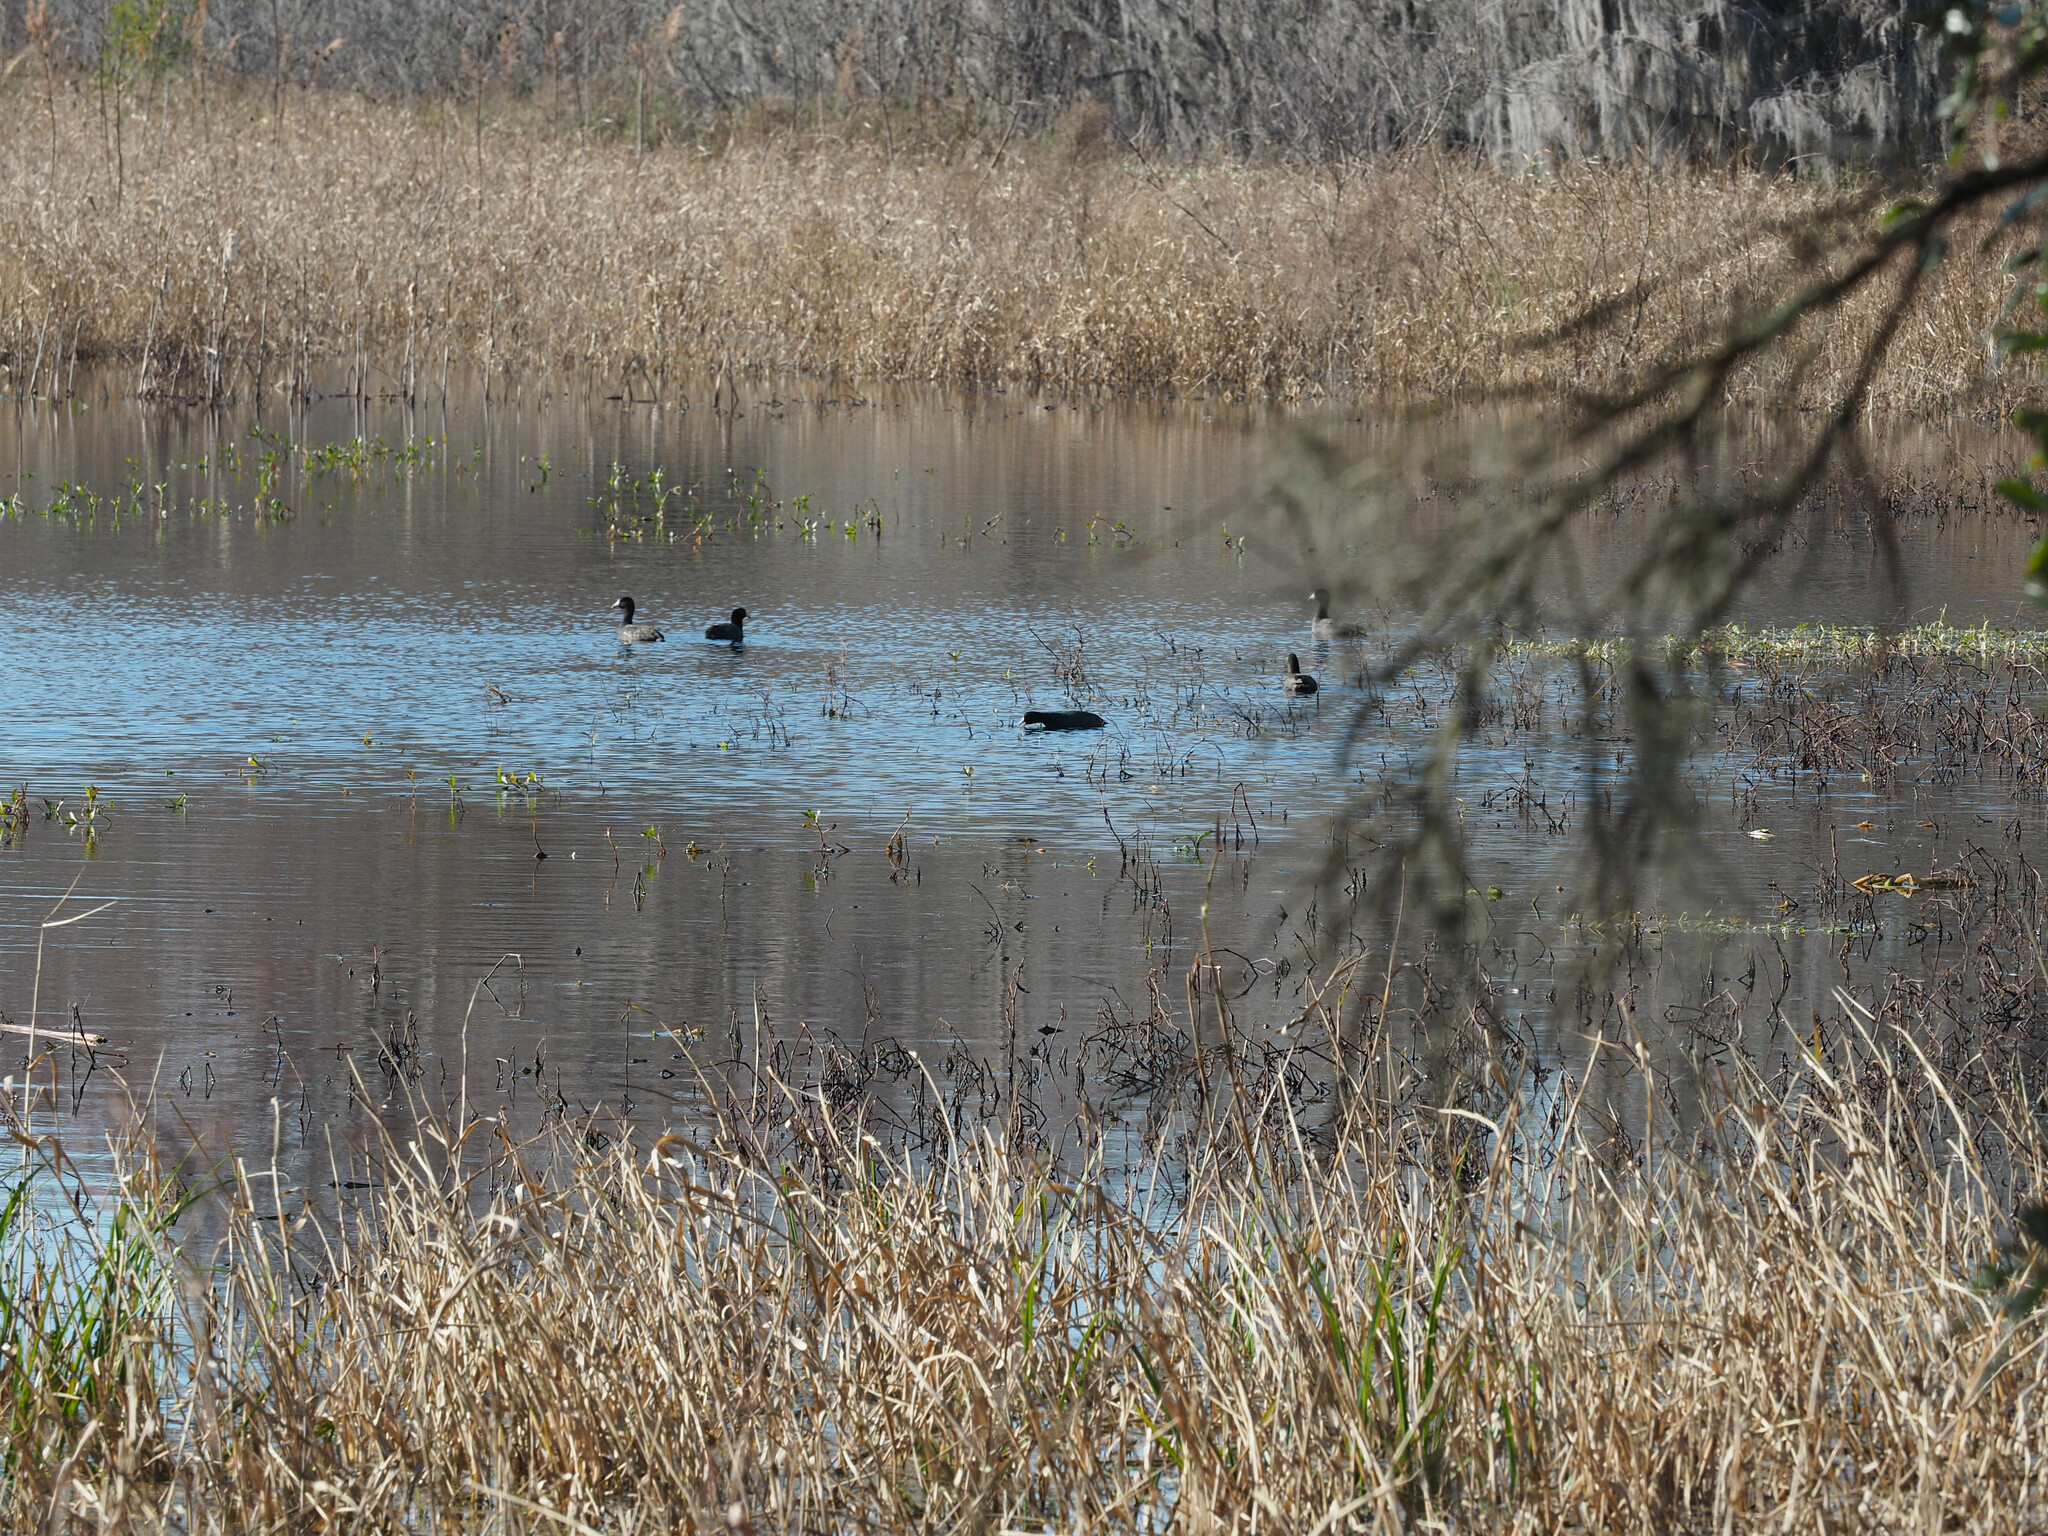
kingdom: Animalia
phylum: Chordata
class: Aves
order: Gruiformes
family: Rallidae
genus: Fulica
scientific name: Fulica americana
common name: American coot
